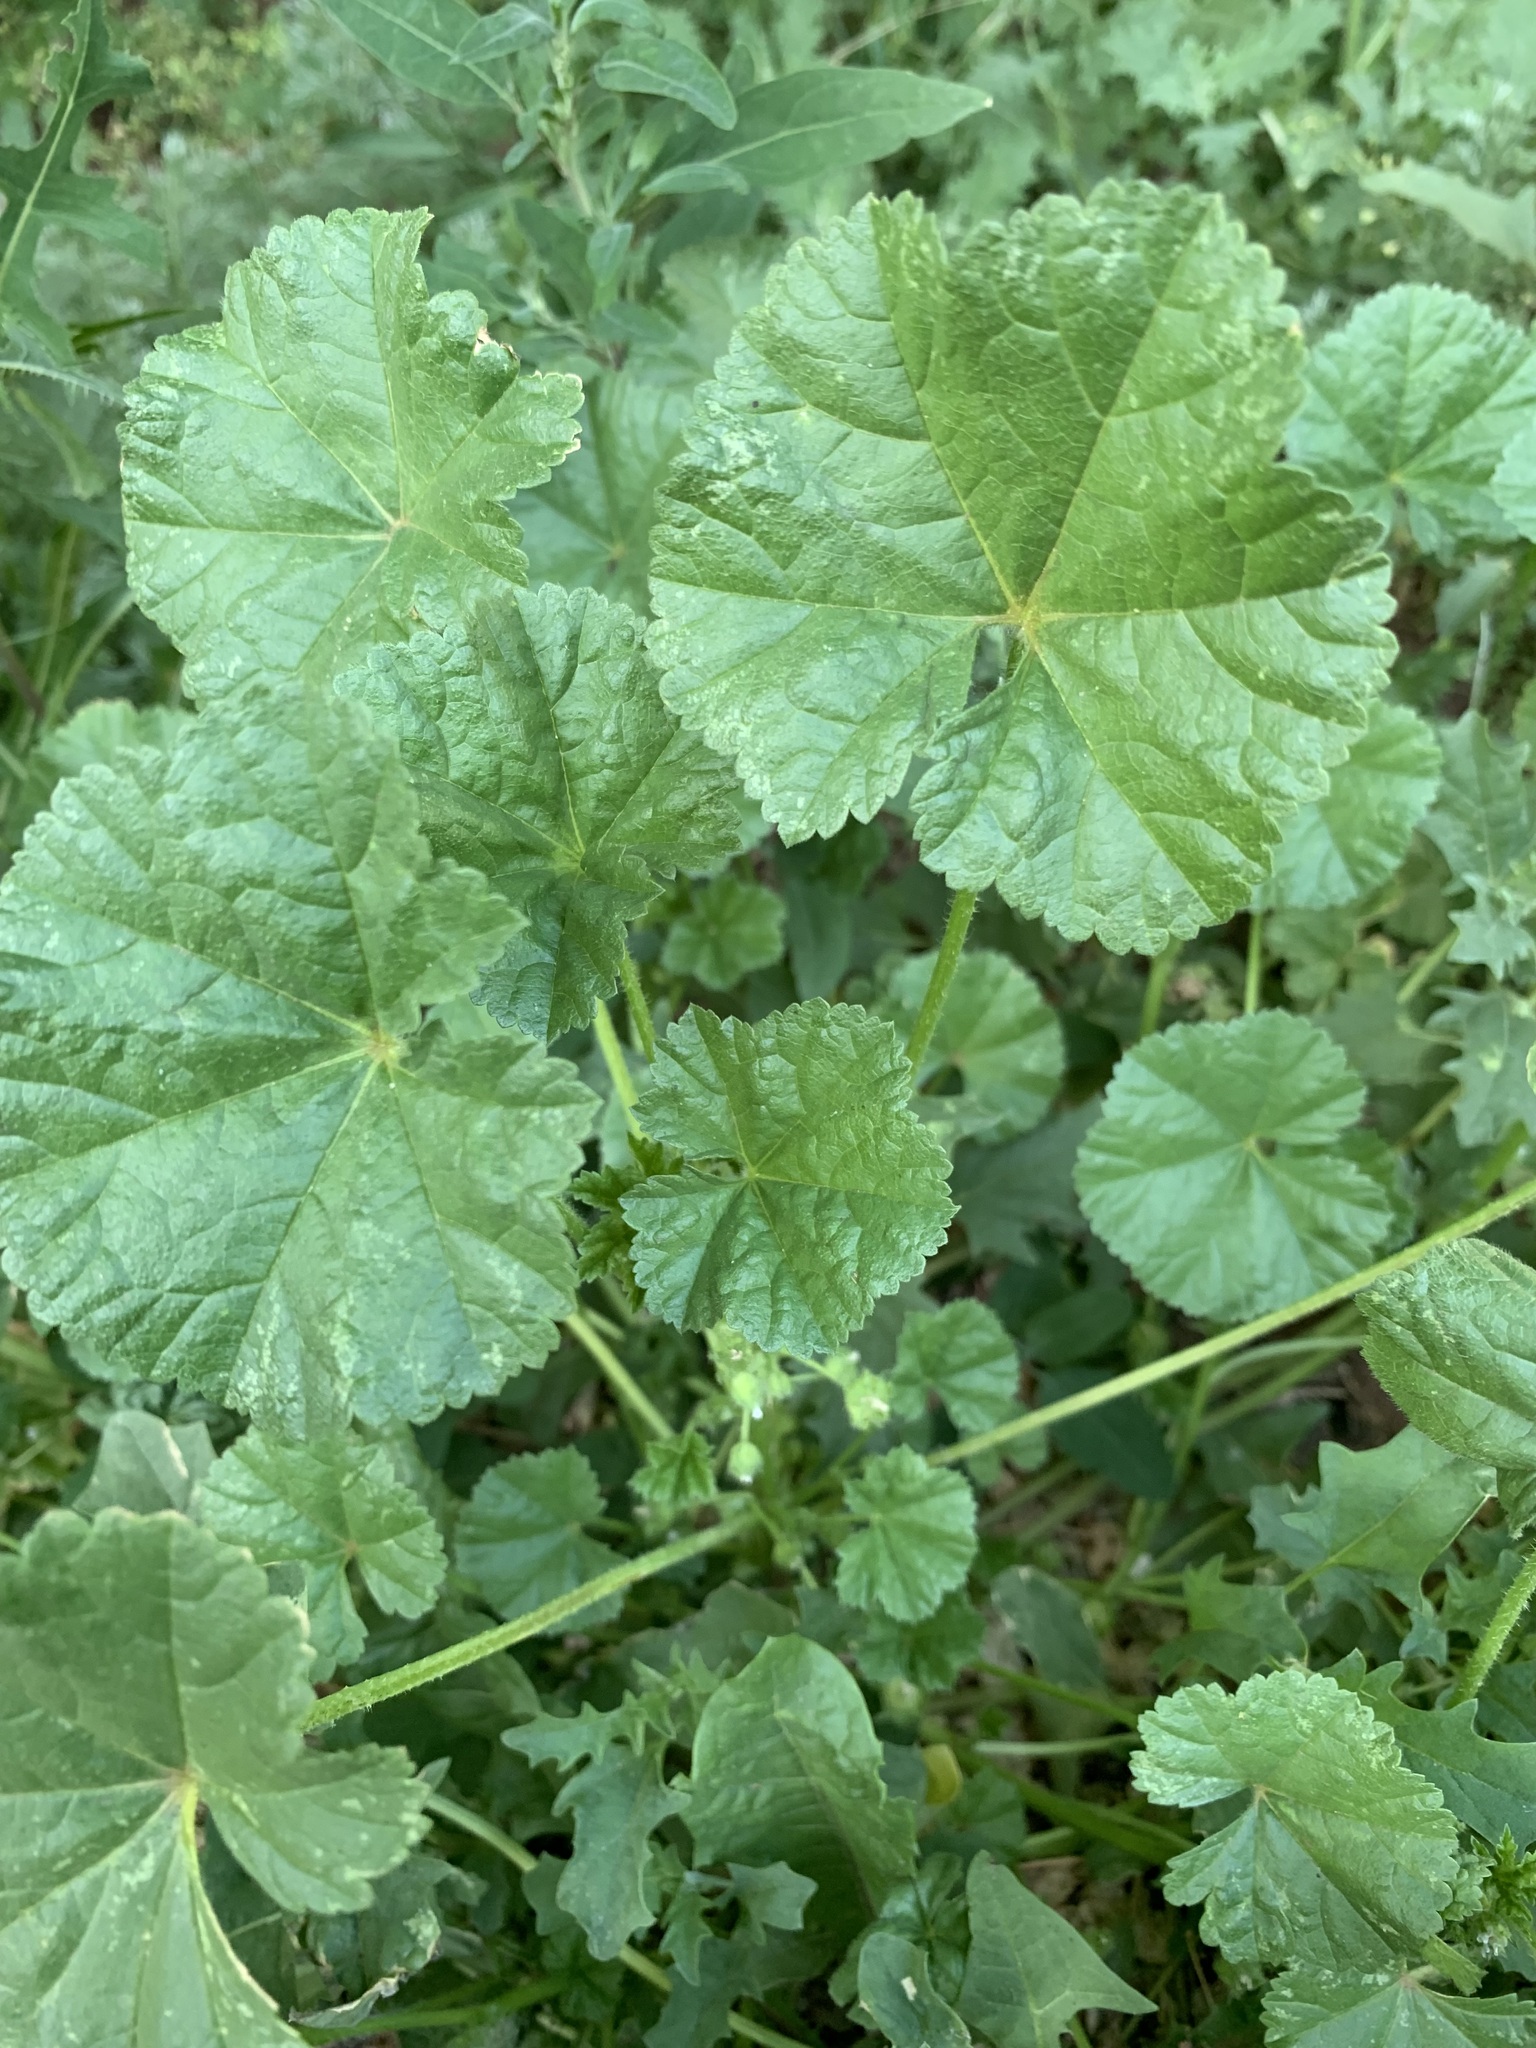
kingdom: Plantae
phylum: Tracheophyta
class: Magnoliopsida
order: Malvales
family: Malvaceae
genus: Malva
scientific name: Malva pusilla
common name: Small mallow
